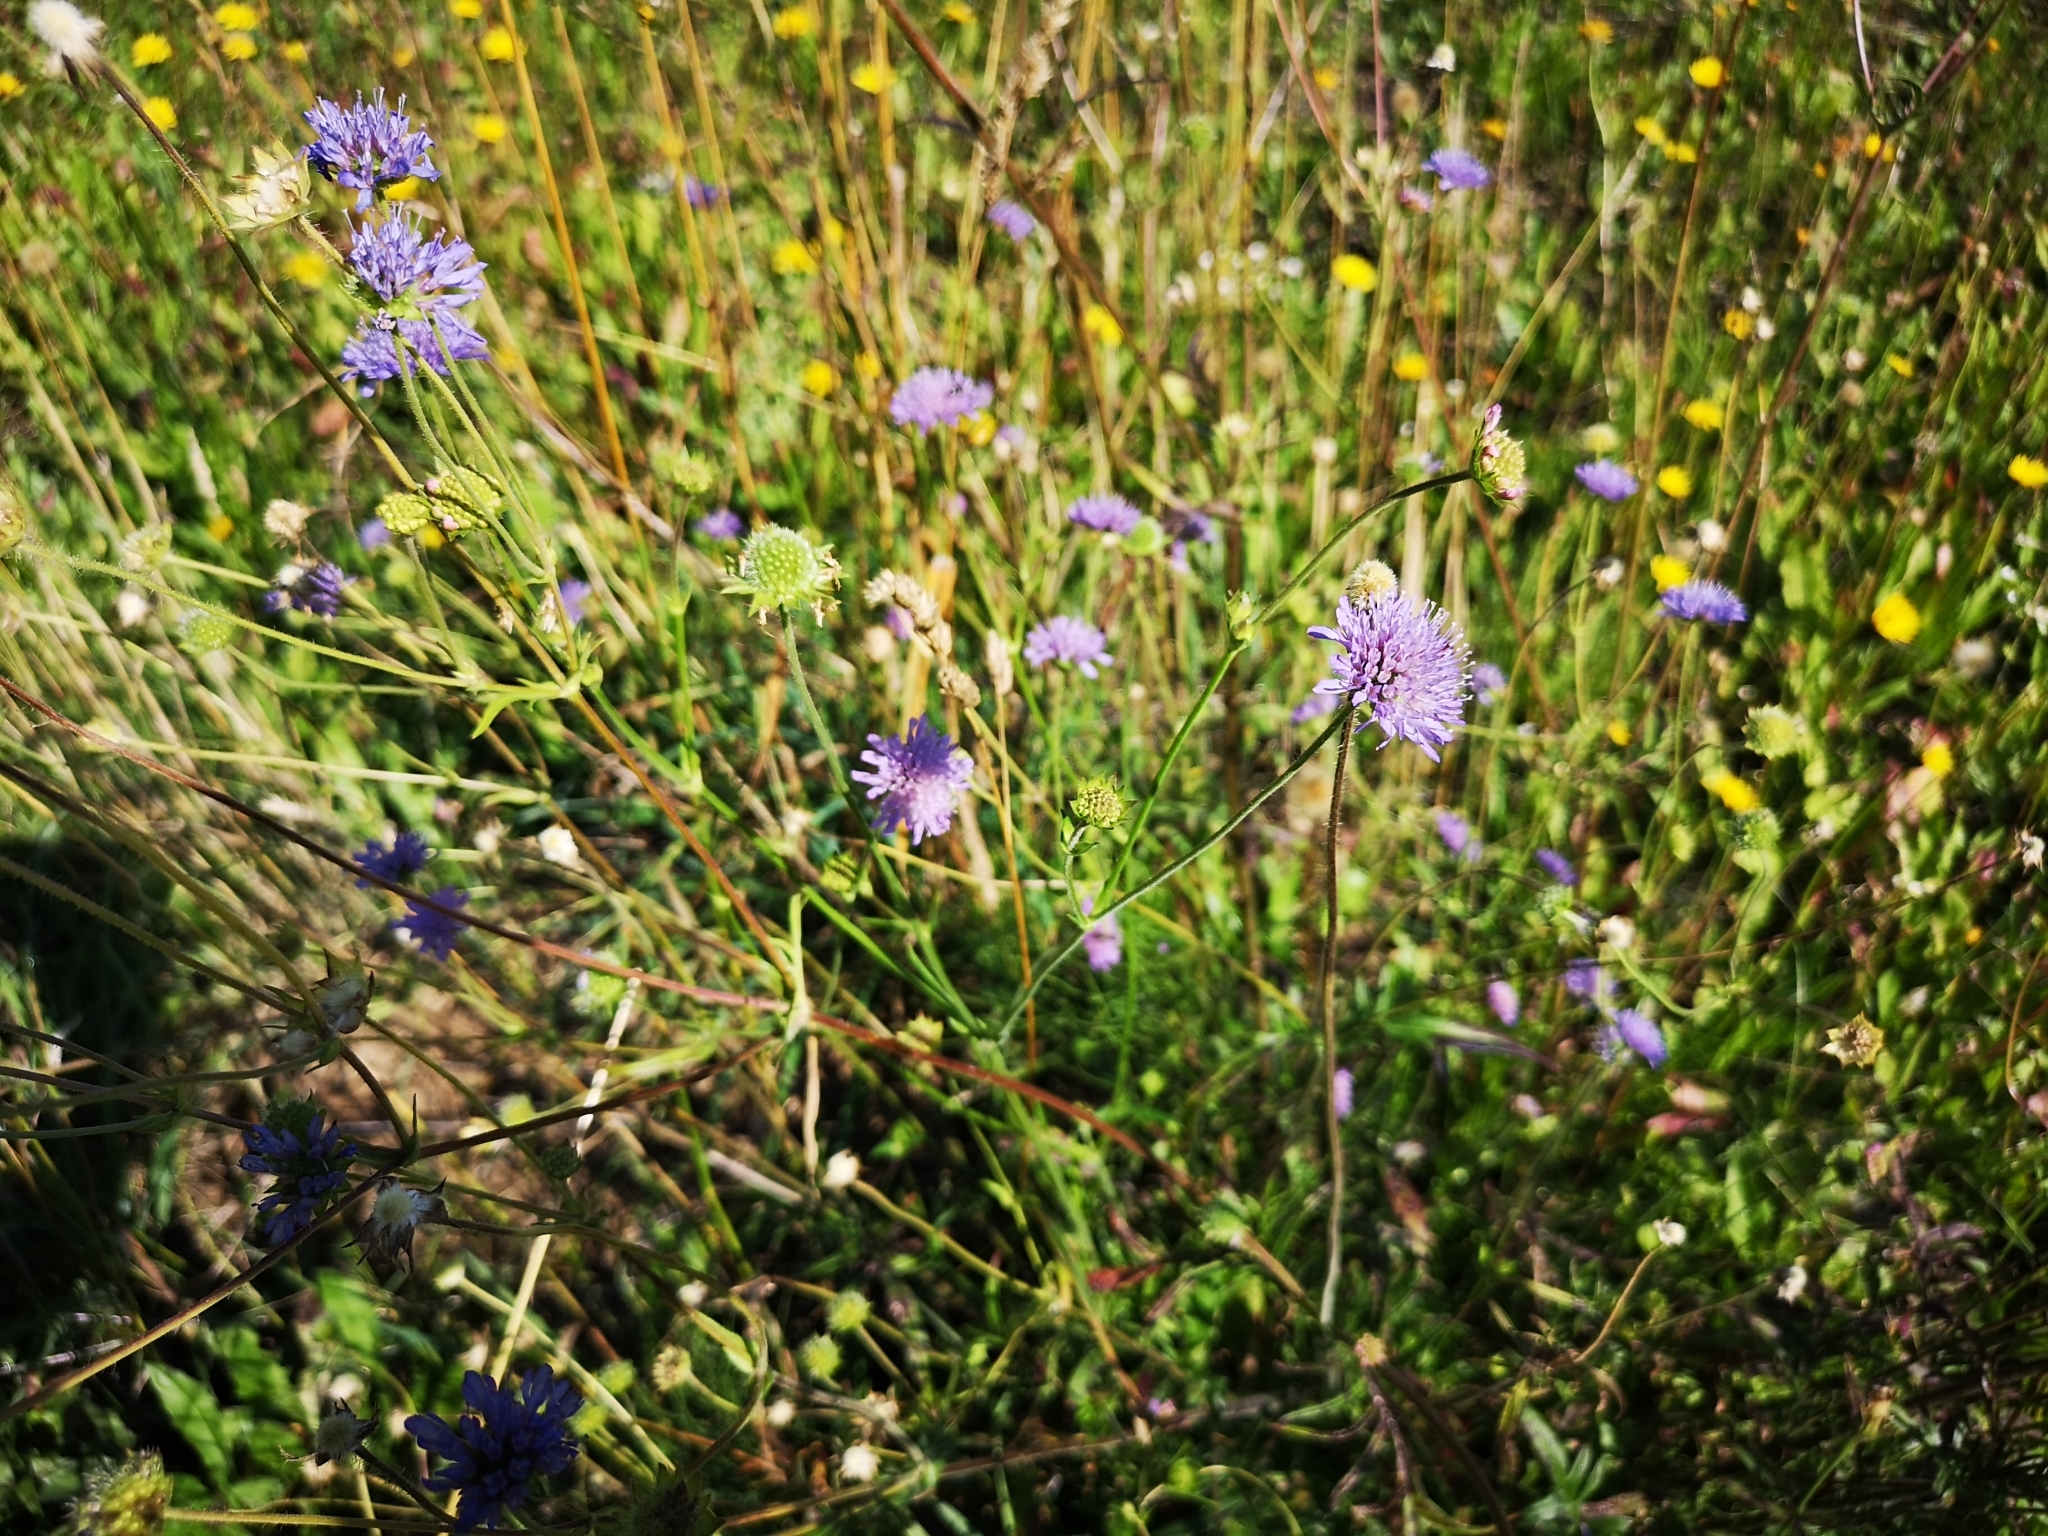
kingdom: Plantae
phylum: Tracheophyta
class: Magnoliopsida
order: Dipsacales
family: Caprifoliaceae
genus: Knautia
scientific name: Knautia arvensis
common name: Field scabiosa
